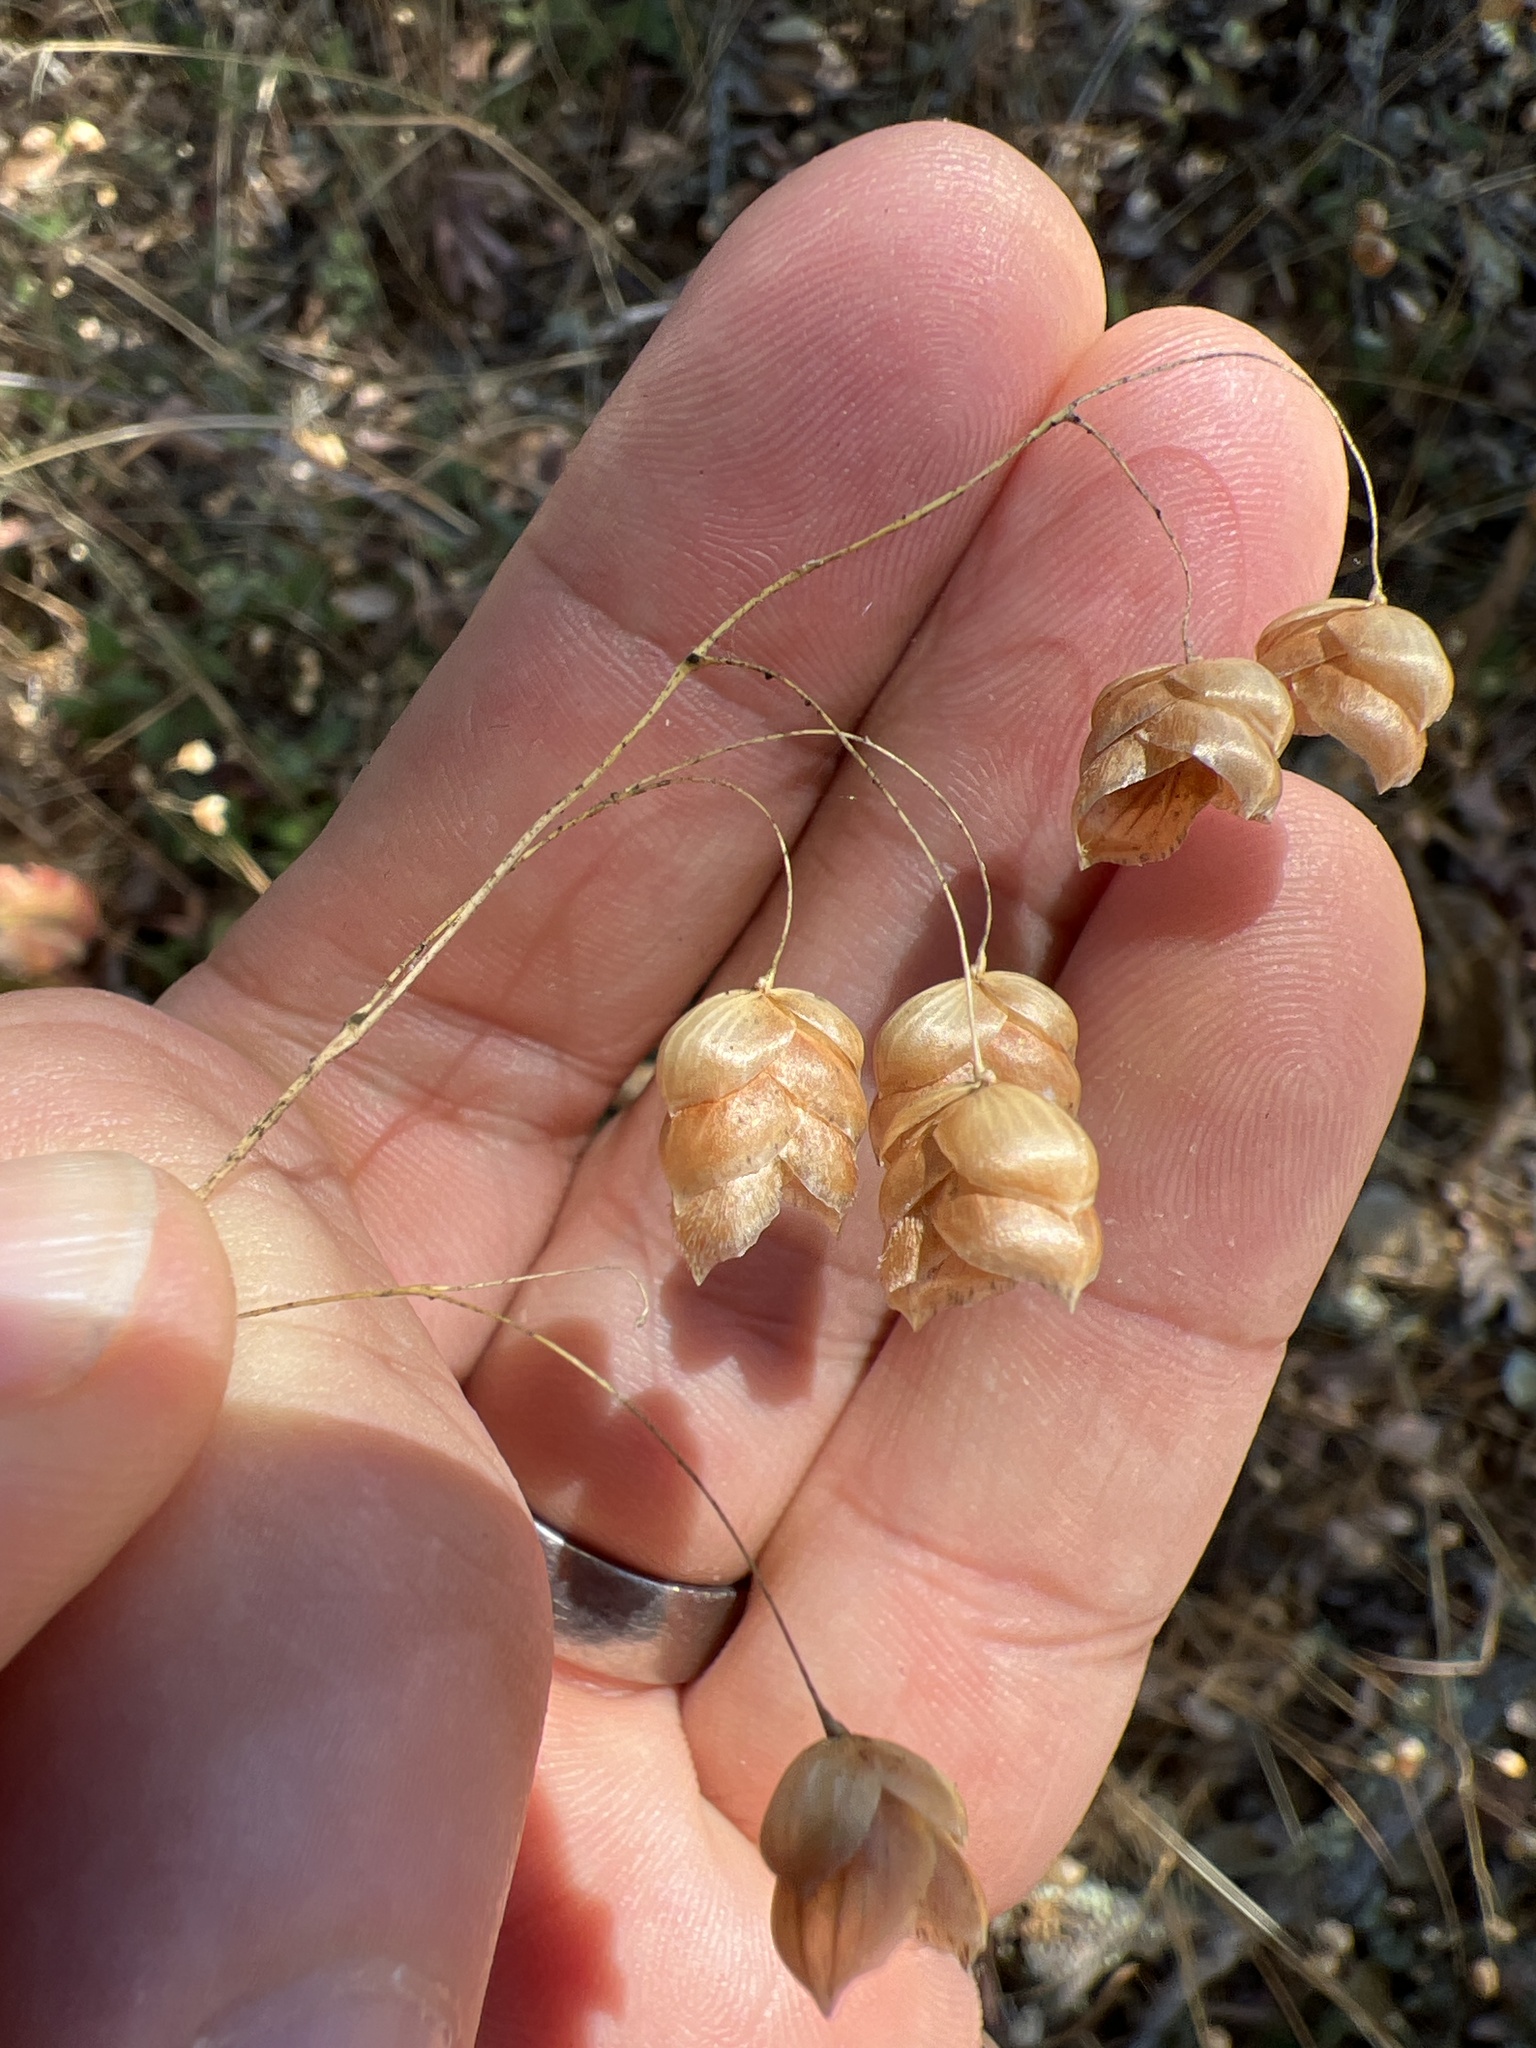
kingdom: Plantae
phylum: Tracheophyta
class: Liliopsida
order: Poales
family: Poaceae
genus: Briza
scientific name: Briza maxima
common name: Big quakinggrass
